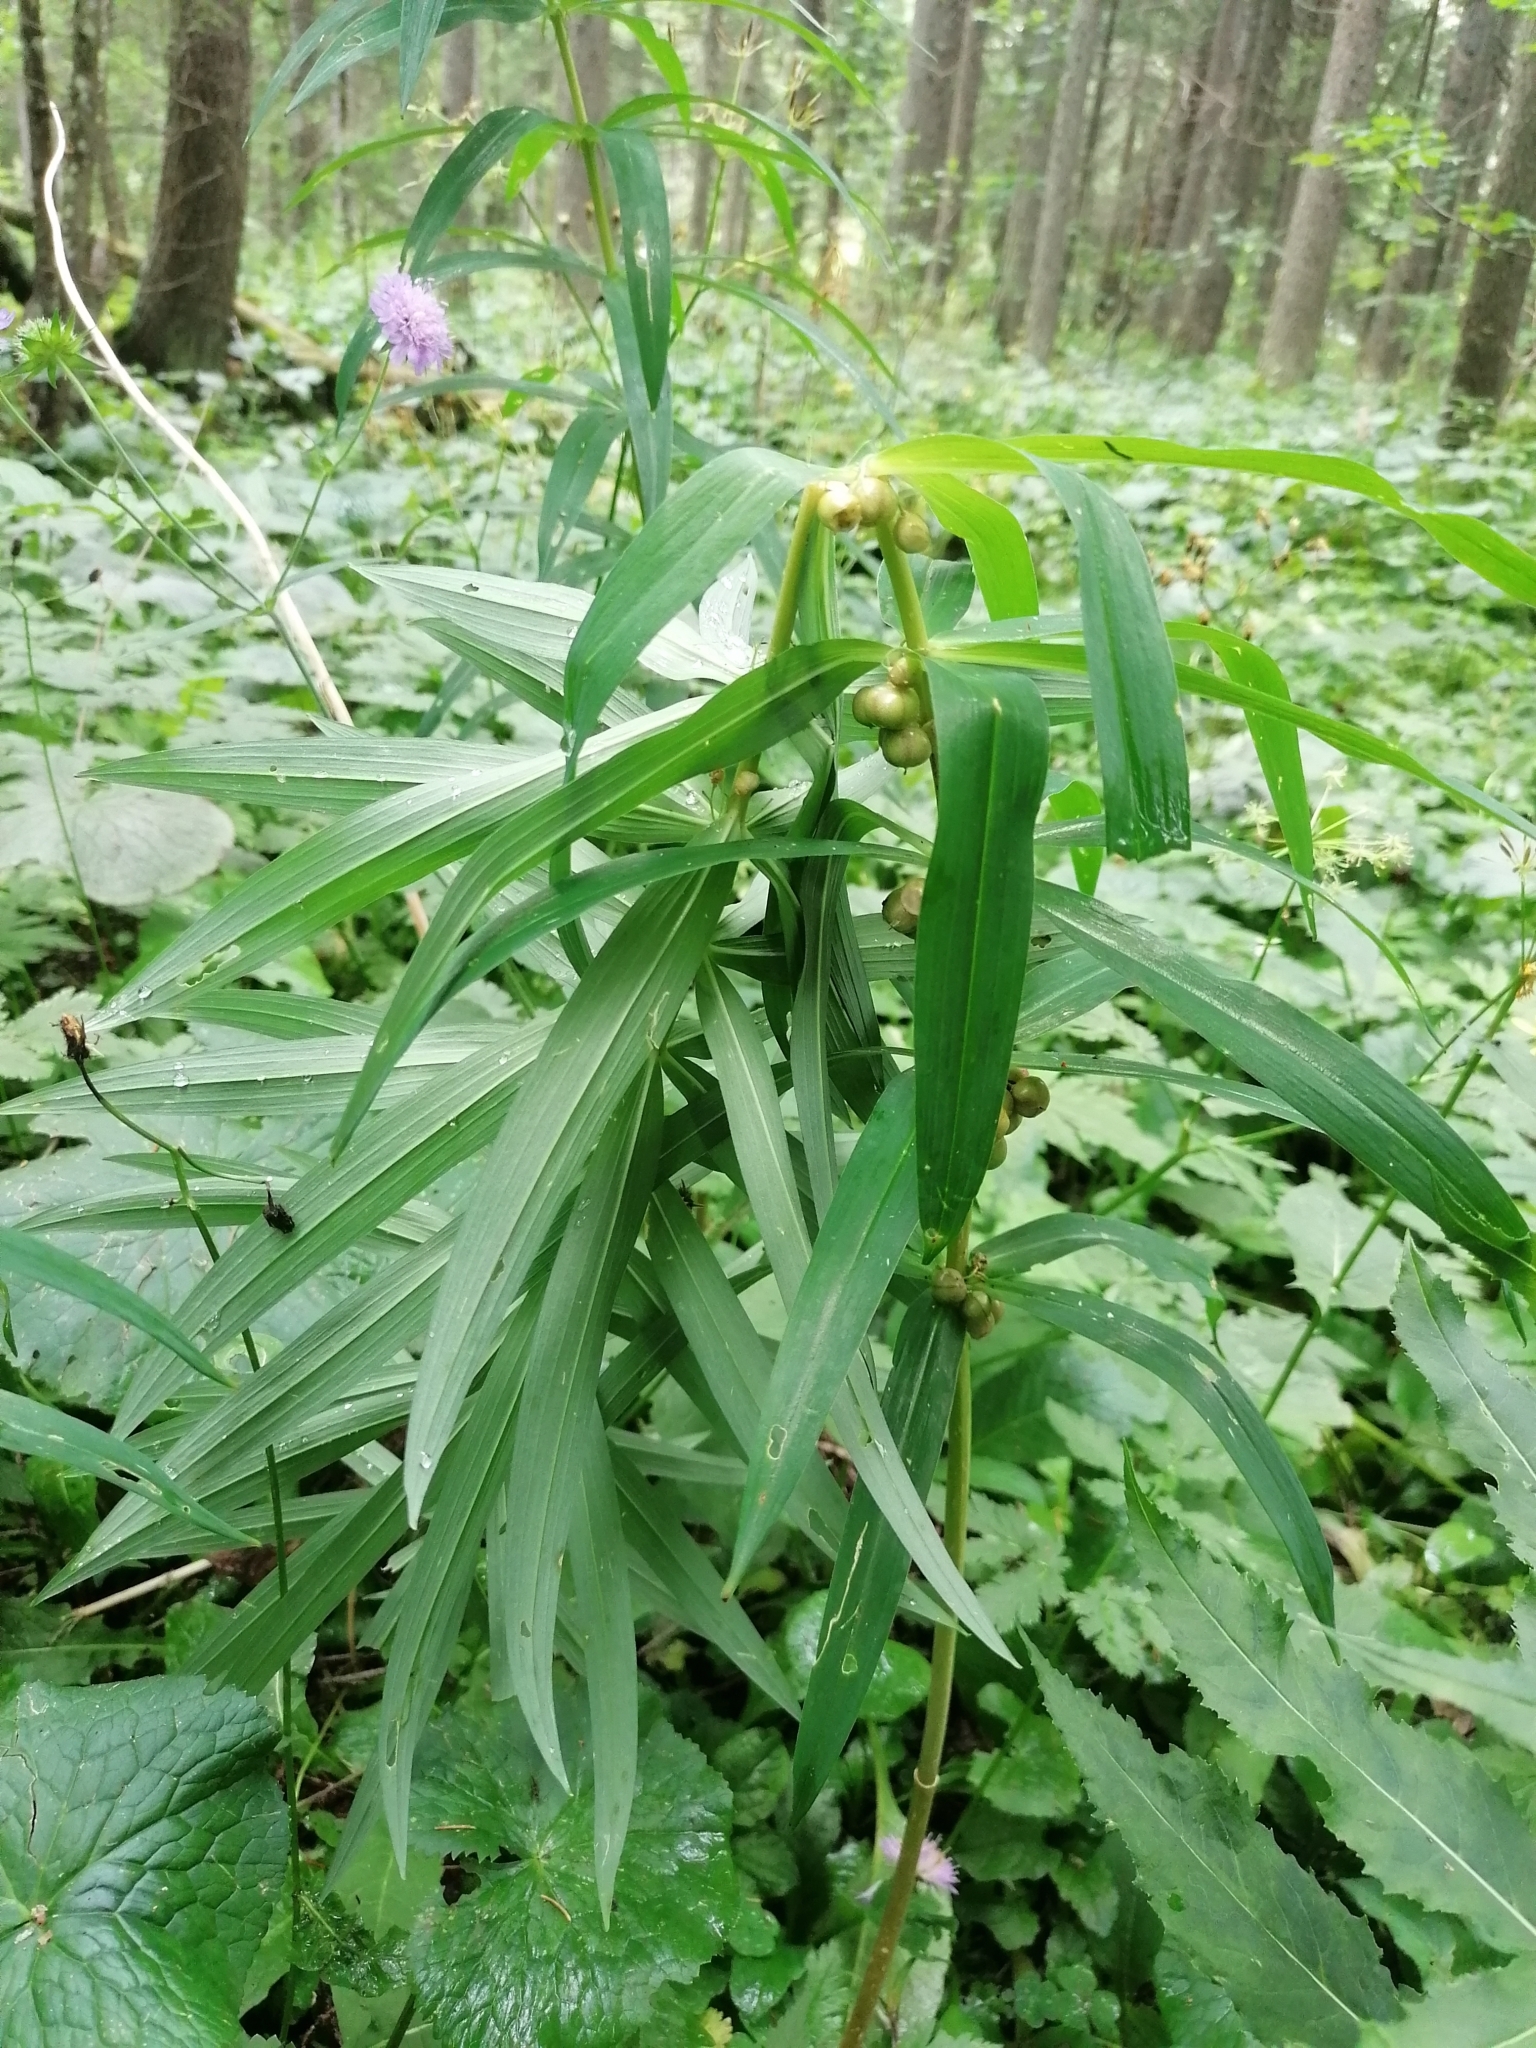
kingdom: Plantae
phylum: Tracheophyta
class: Liliopsida
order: Asparagales
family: Asparagaceae
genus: Polygonatum
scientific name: Polygonatum verticillatum
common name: Whorled solomon's-seal
